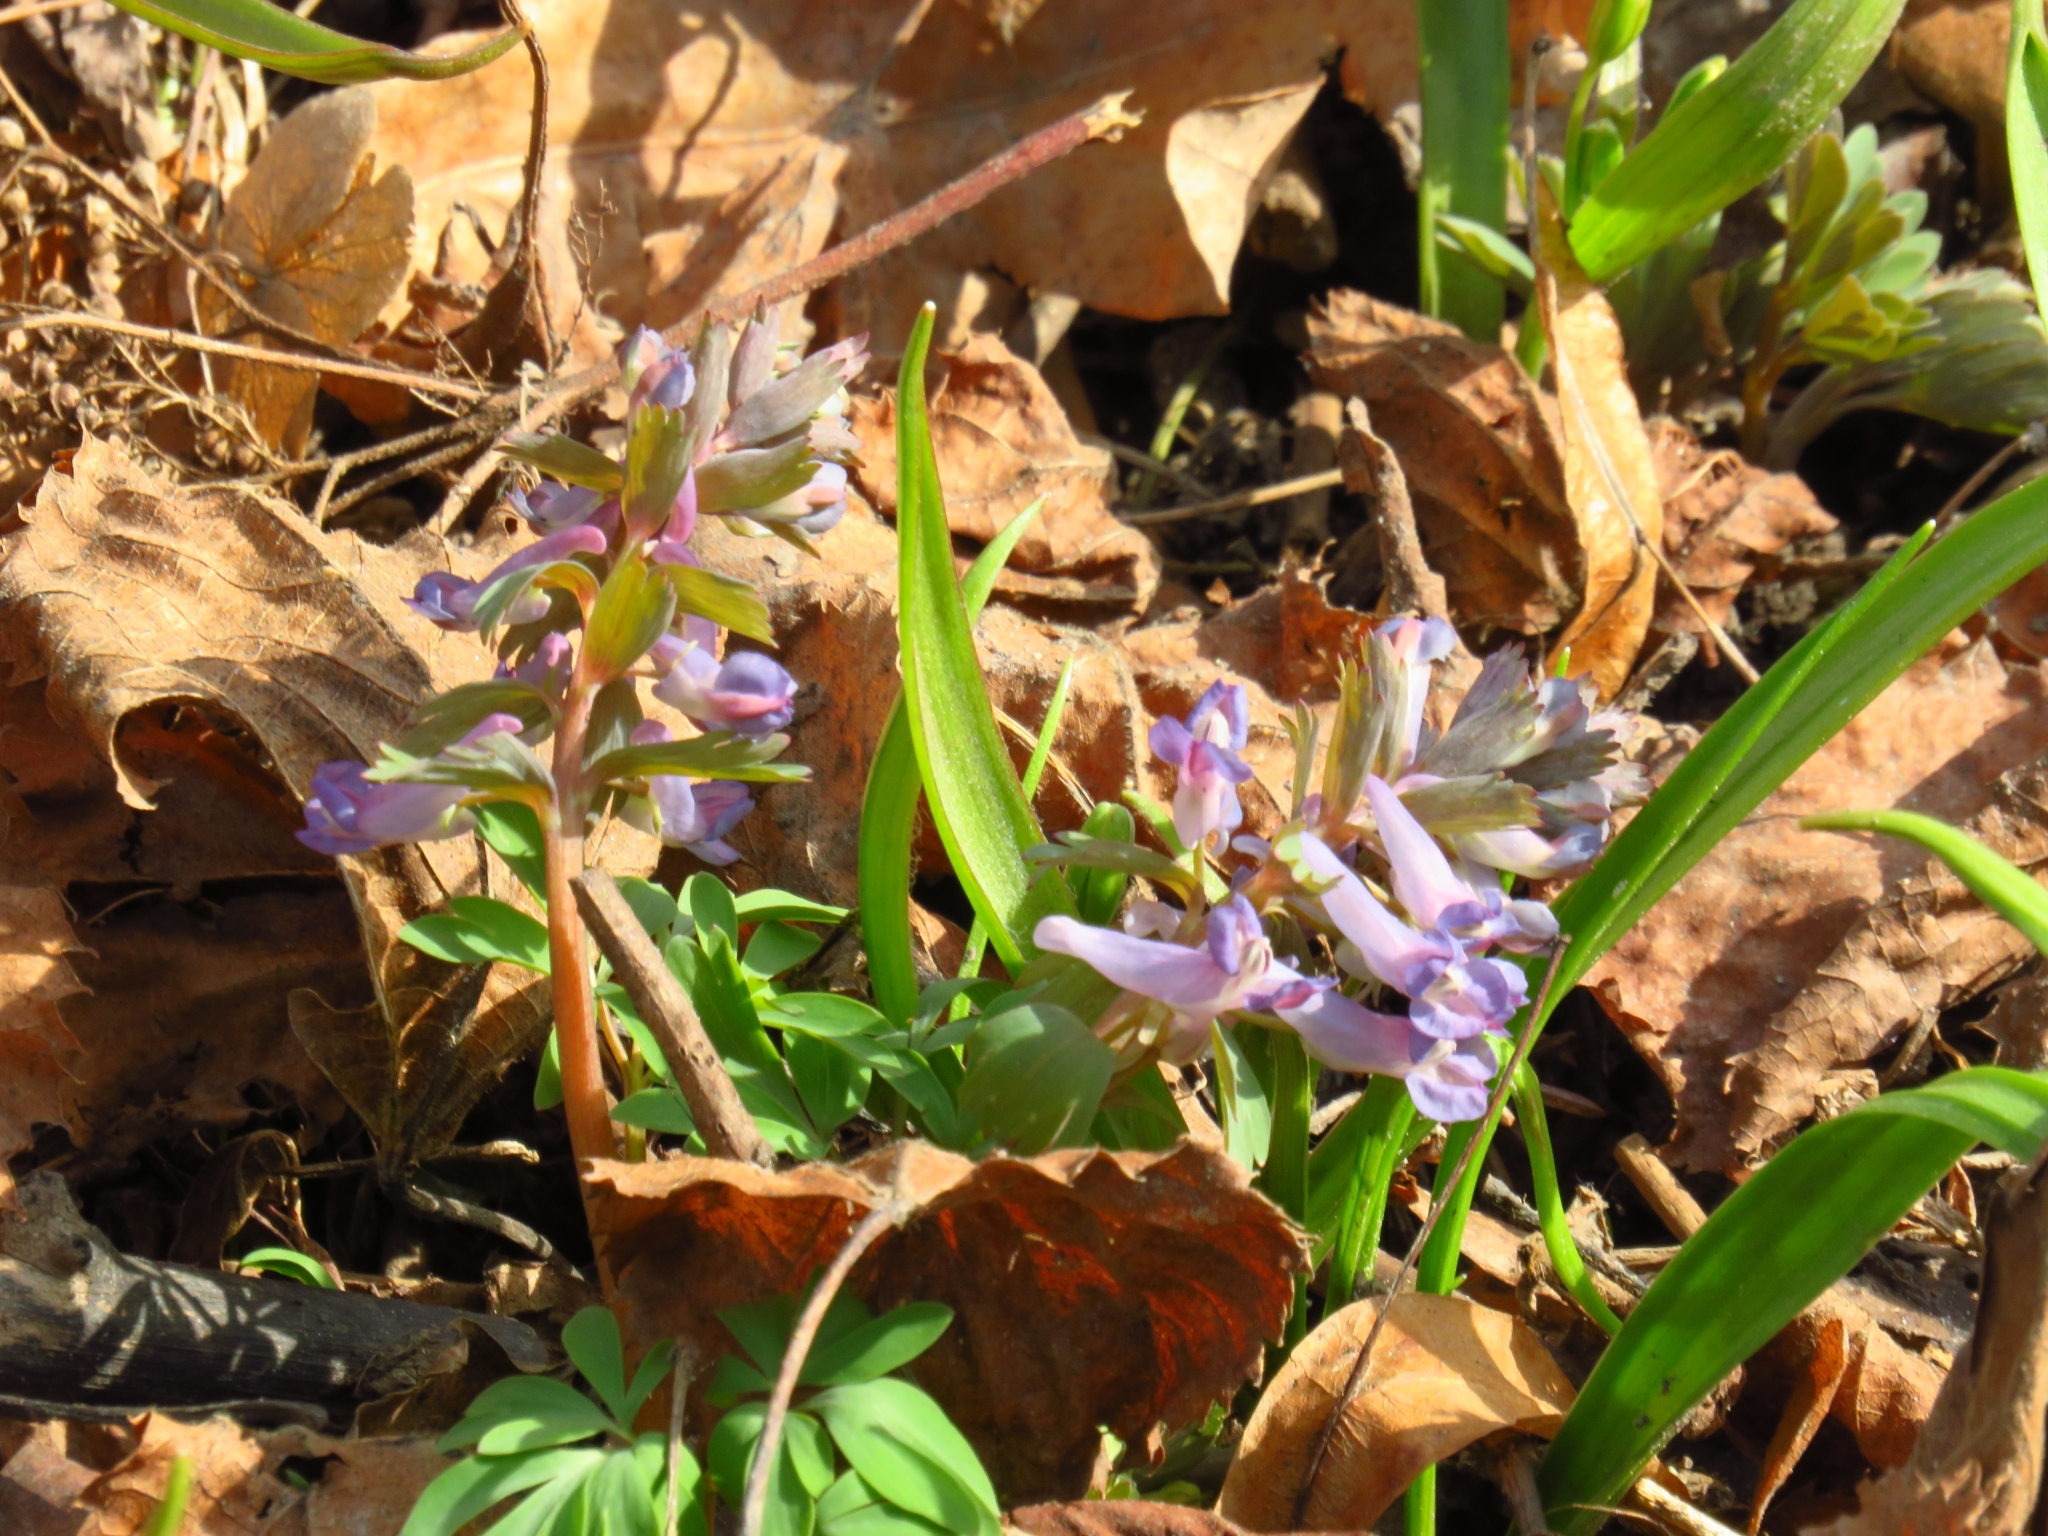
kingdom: Plantae
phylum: Tracheophyta
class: Magnoliopsida
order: Ranunculales
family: Papaveraceae
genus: Corydalis
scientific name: Corydalis solida
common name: Bird-in-a-bush
